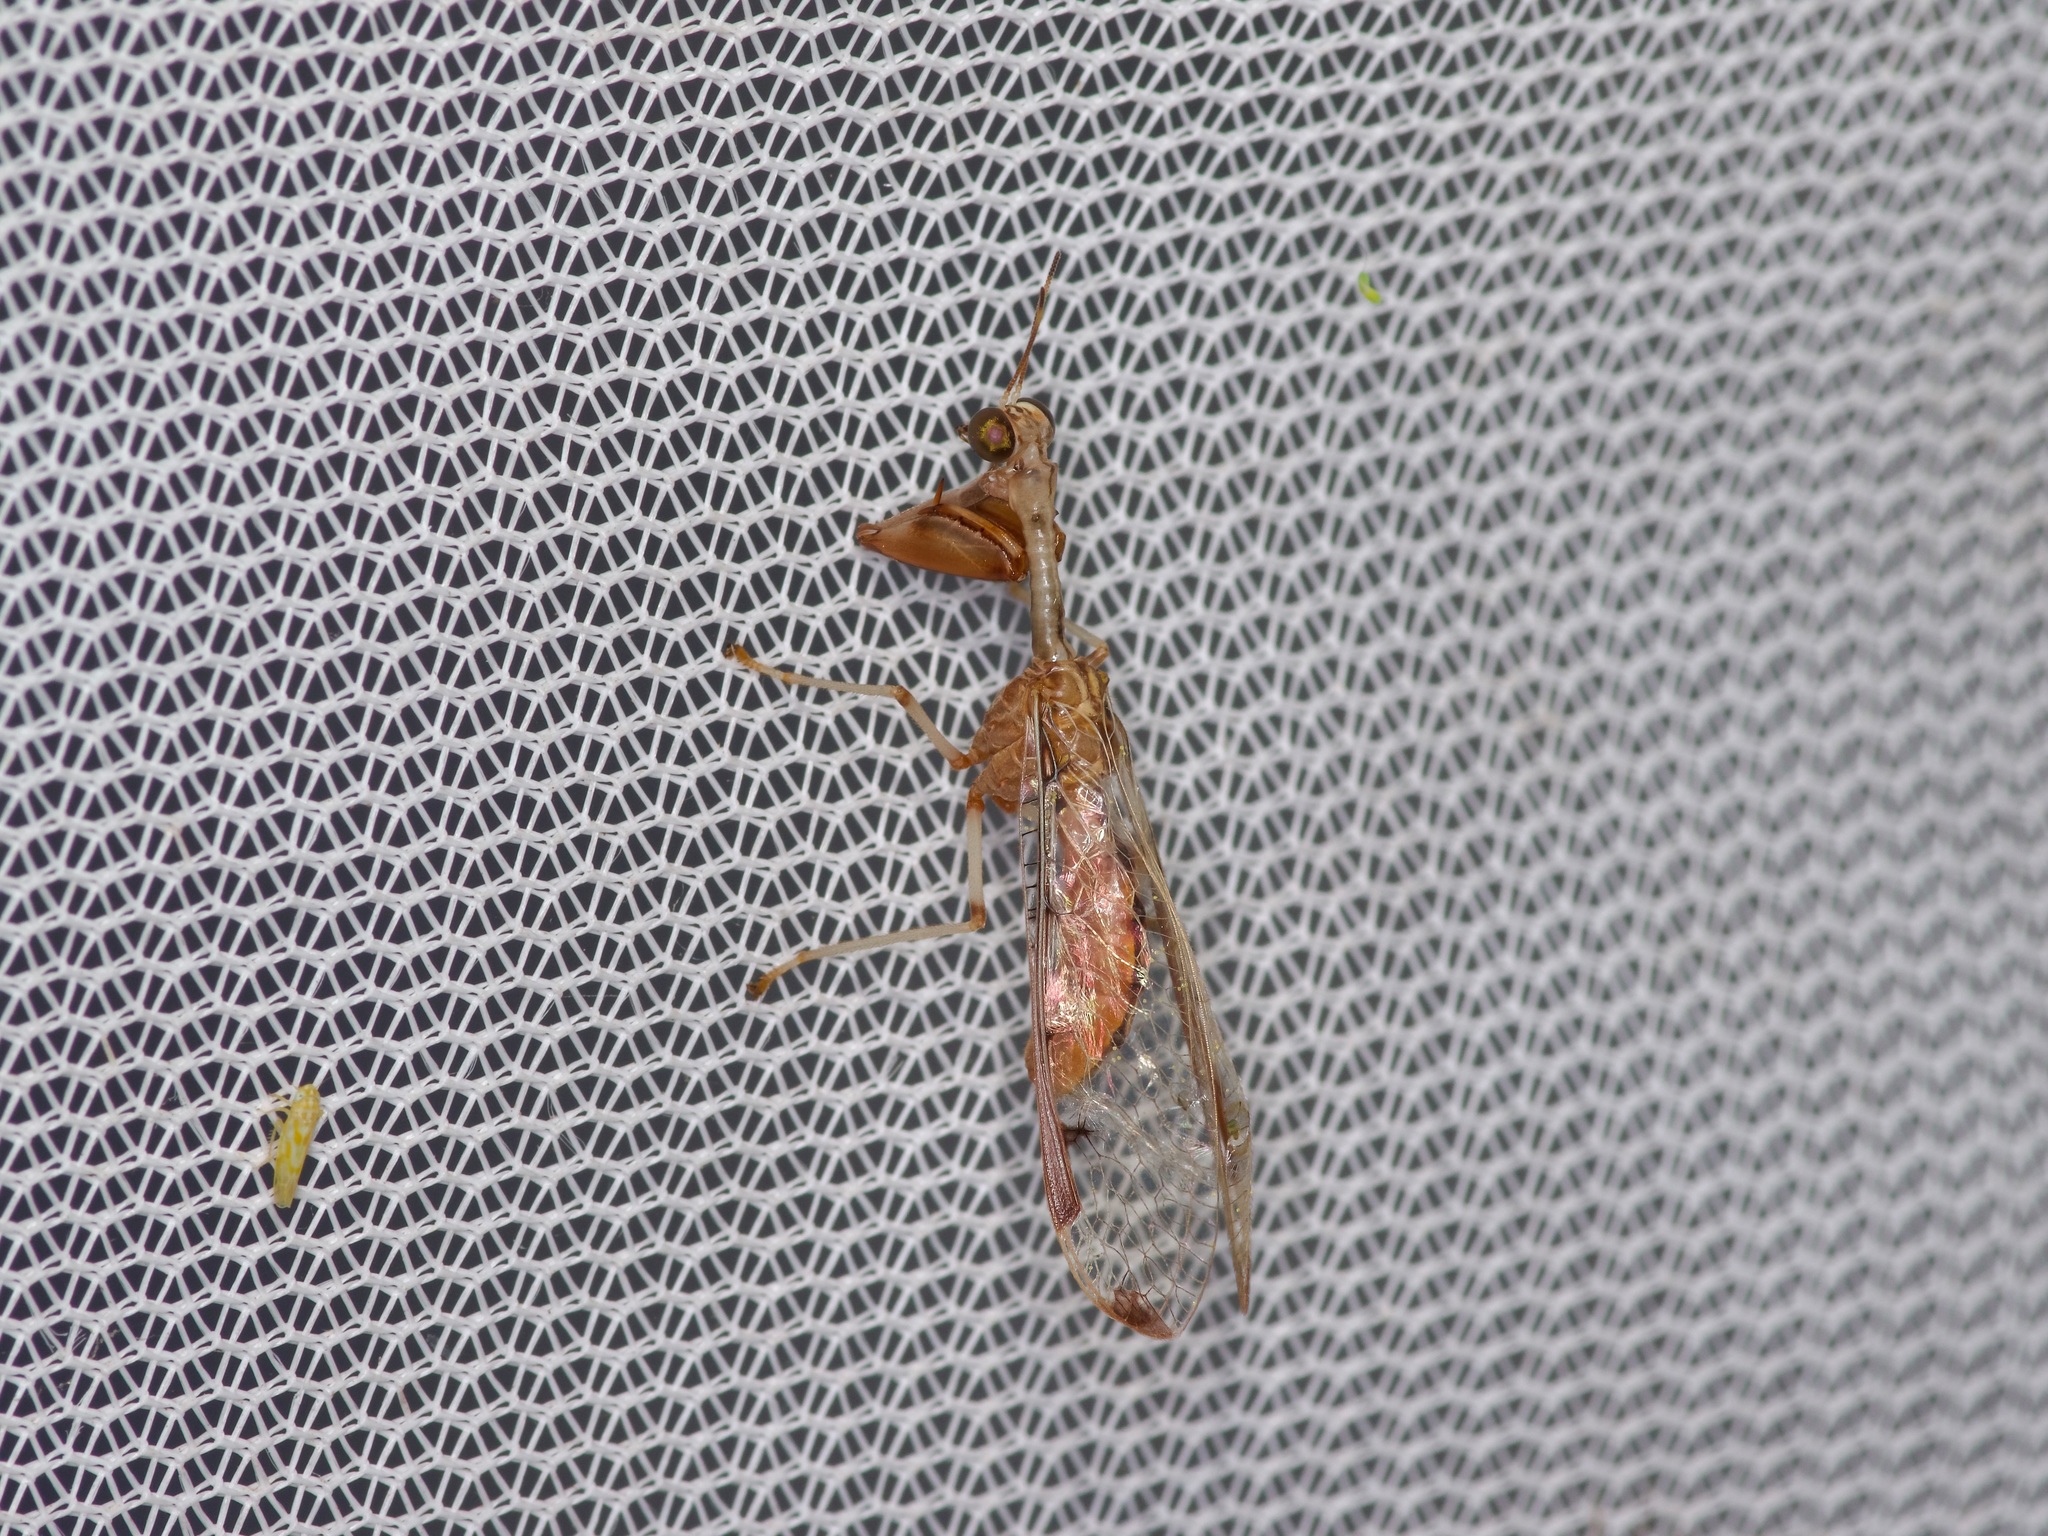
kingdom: Animalia
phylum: Arthropoda
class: Insecta
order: Neuroptera
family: Mantispidae
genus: Dicromantispa
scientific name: Dicromantispa interrupta
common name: Four-spotted mantidfly
